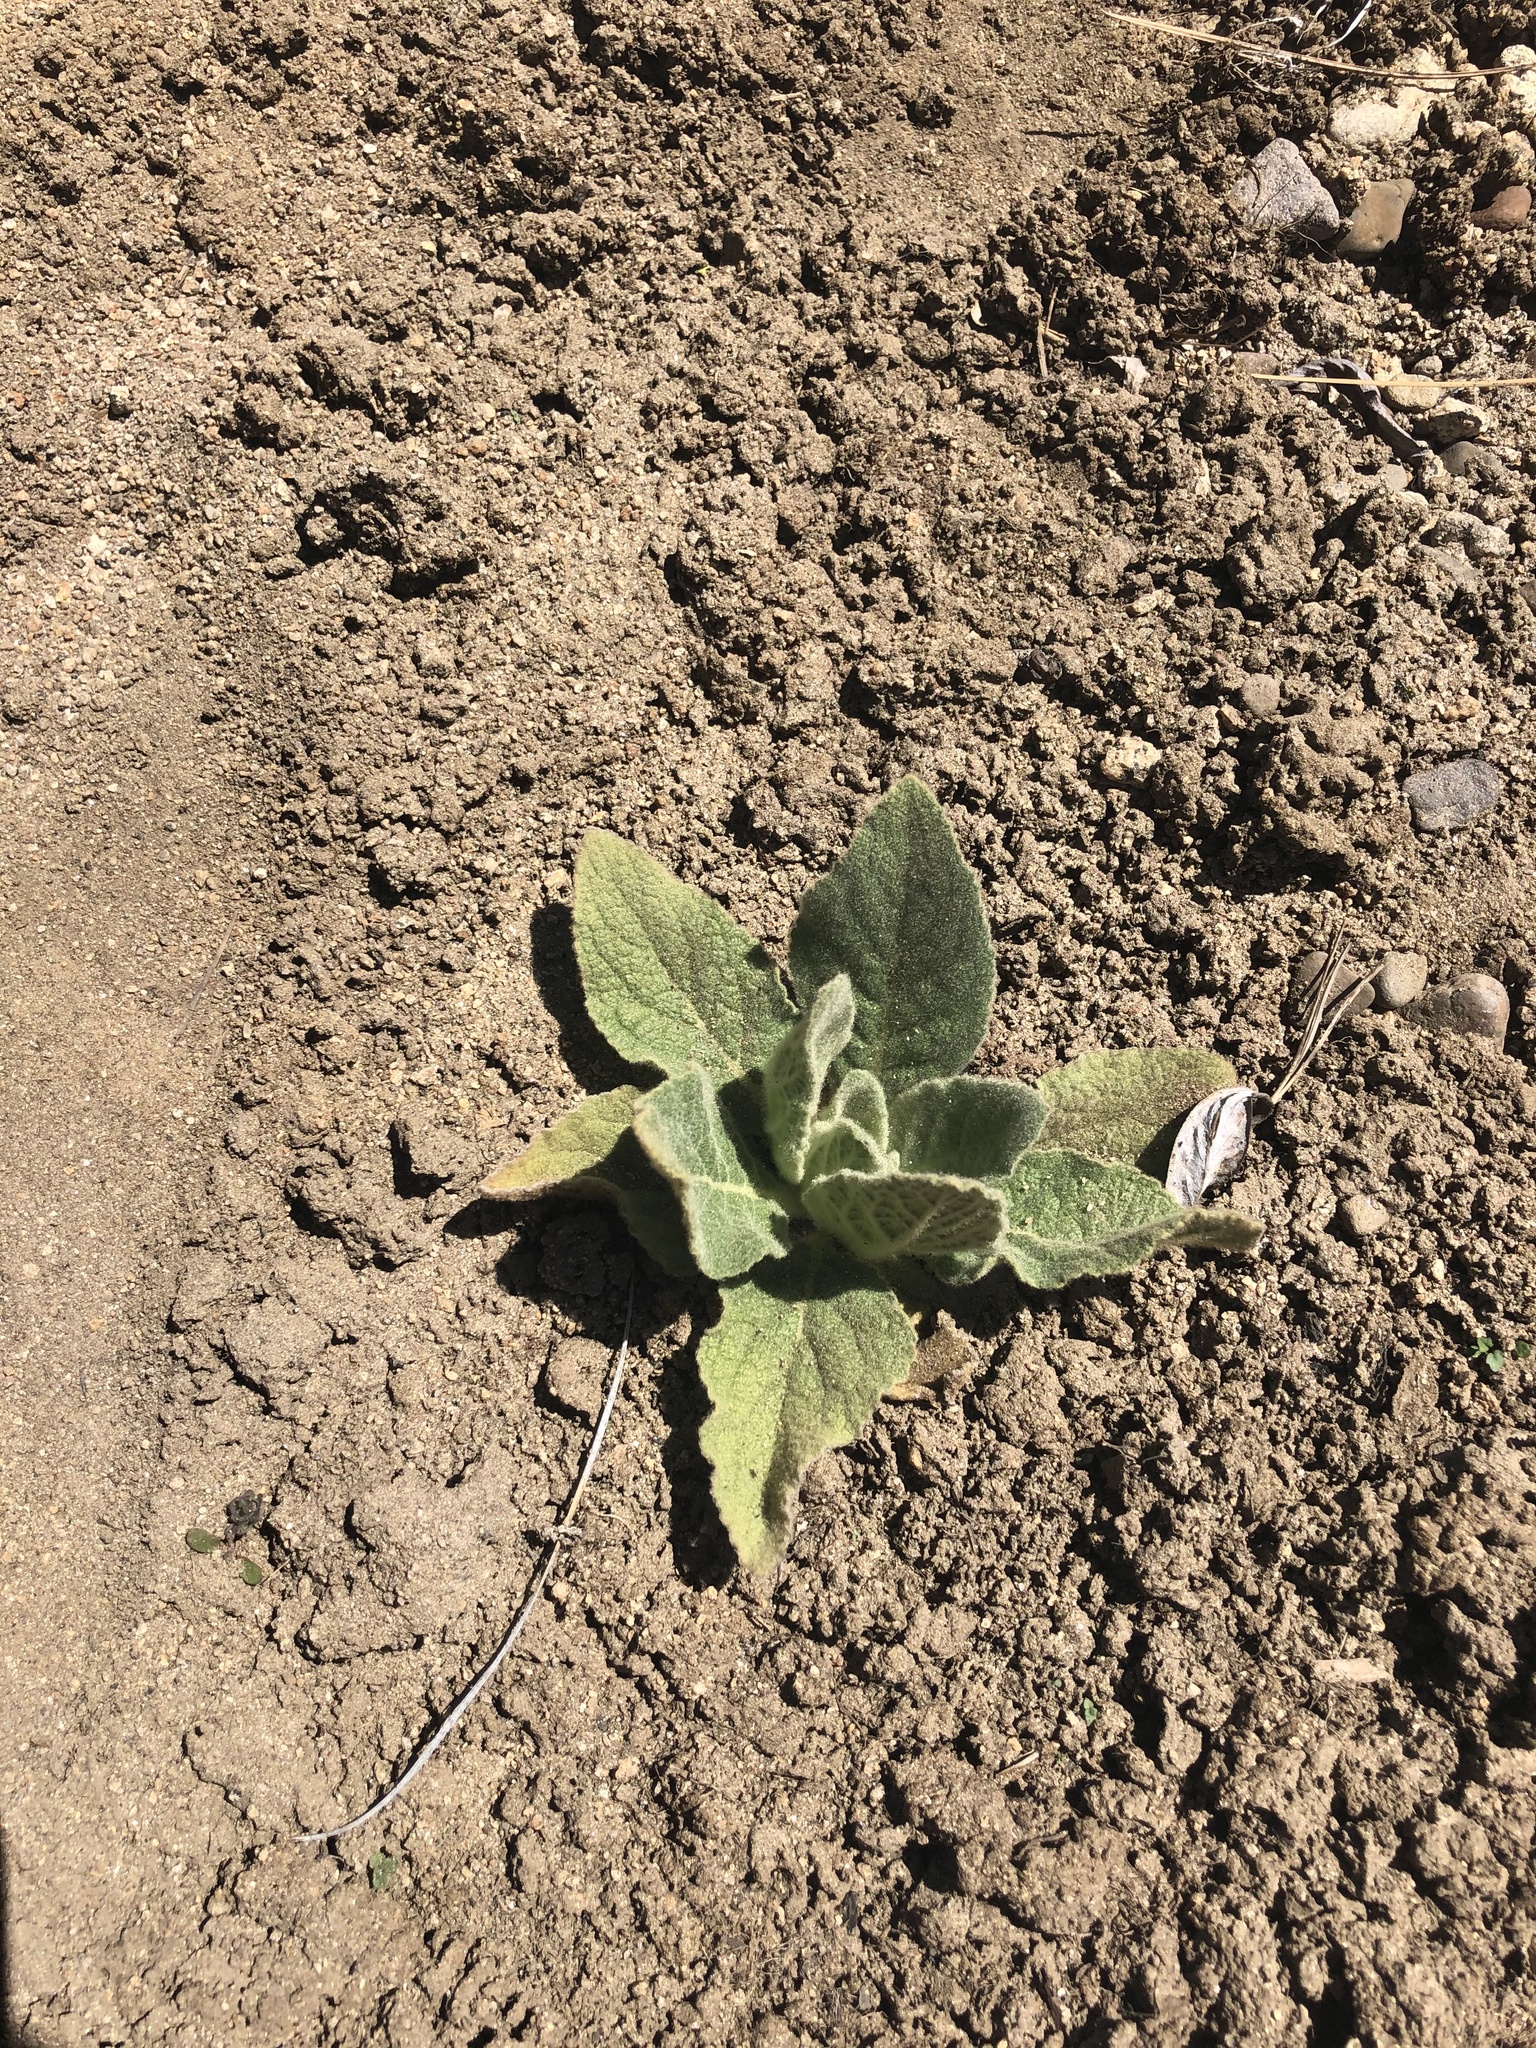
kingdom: Plantae
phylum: Tracheophyta
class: Magnoliopsida
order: Lamiales
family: Scrophulariaceae
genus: Verbascum
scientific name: Verbascum thapsus
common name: Common mullein
